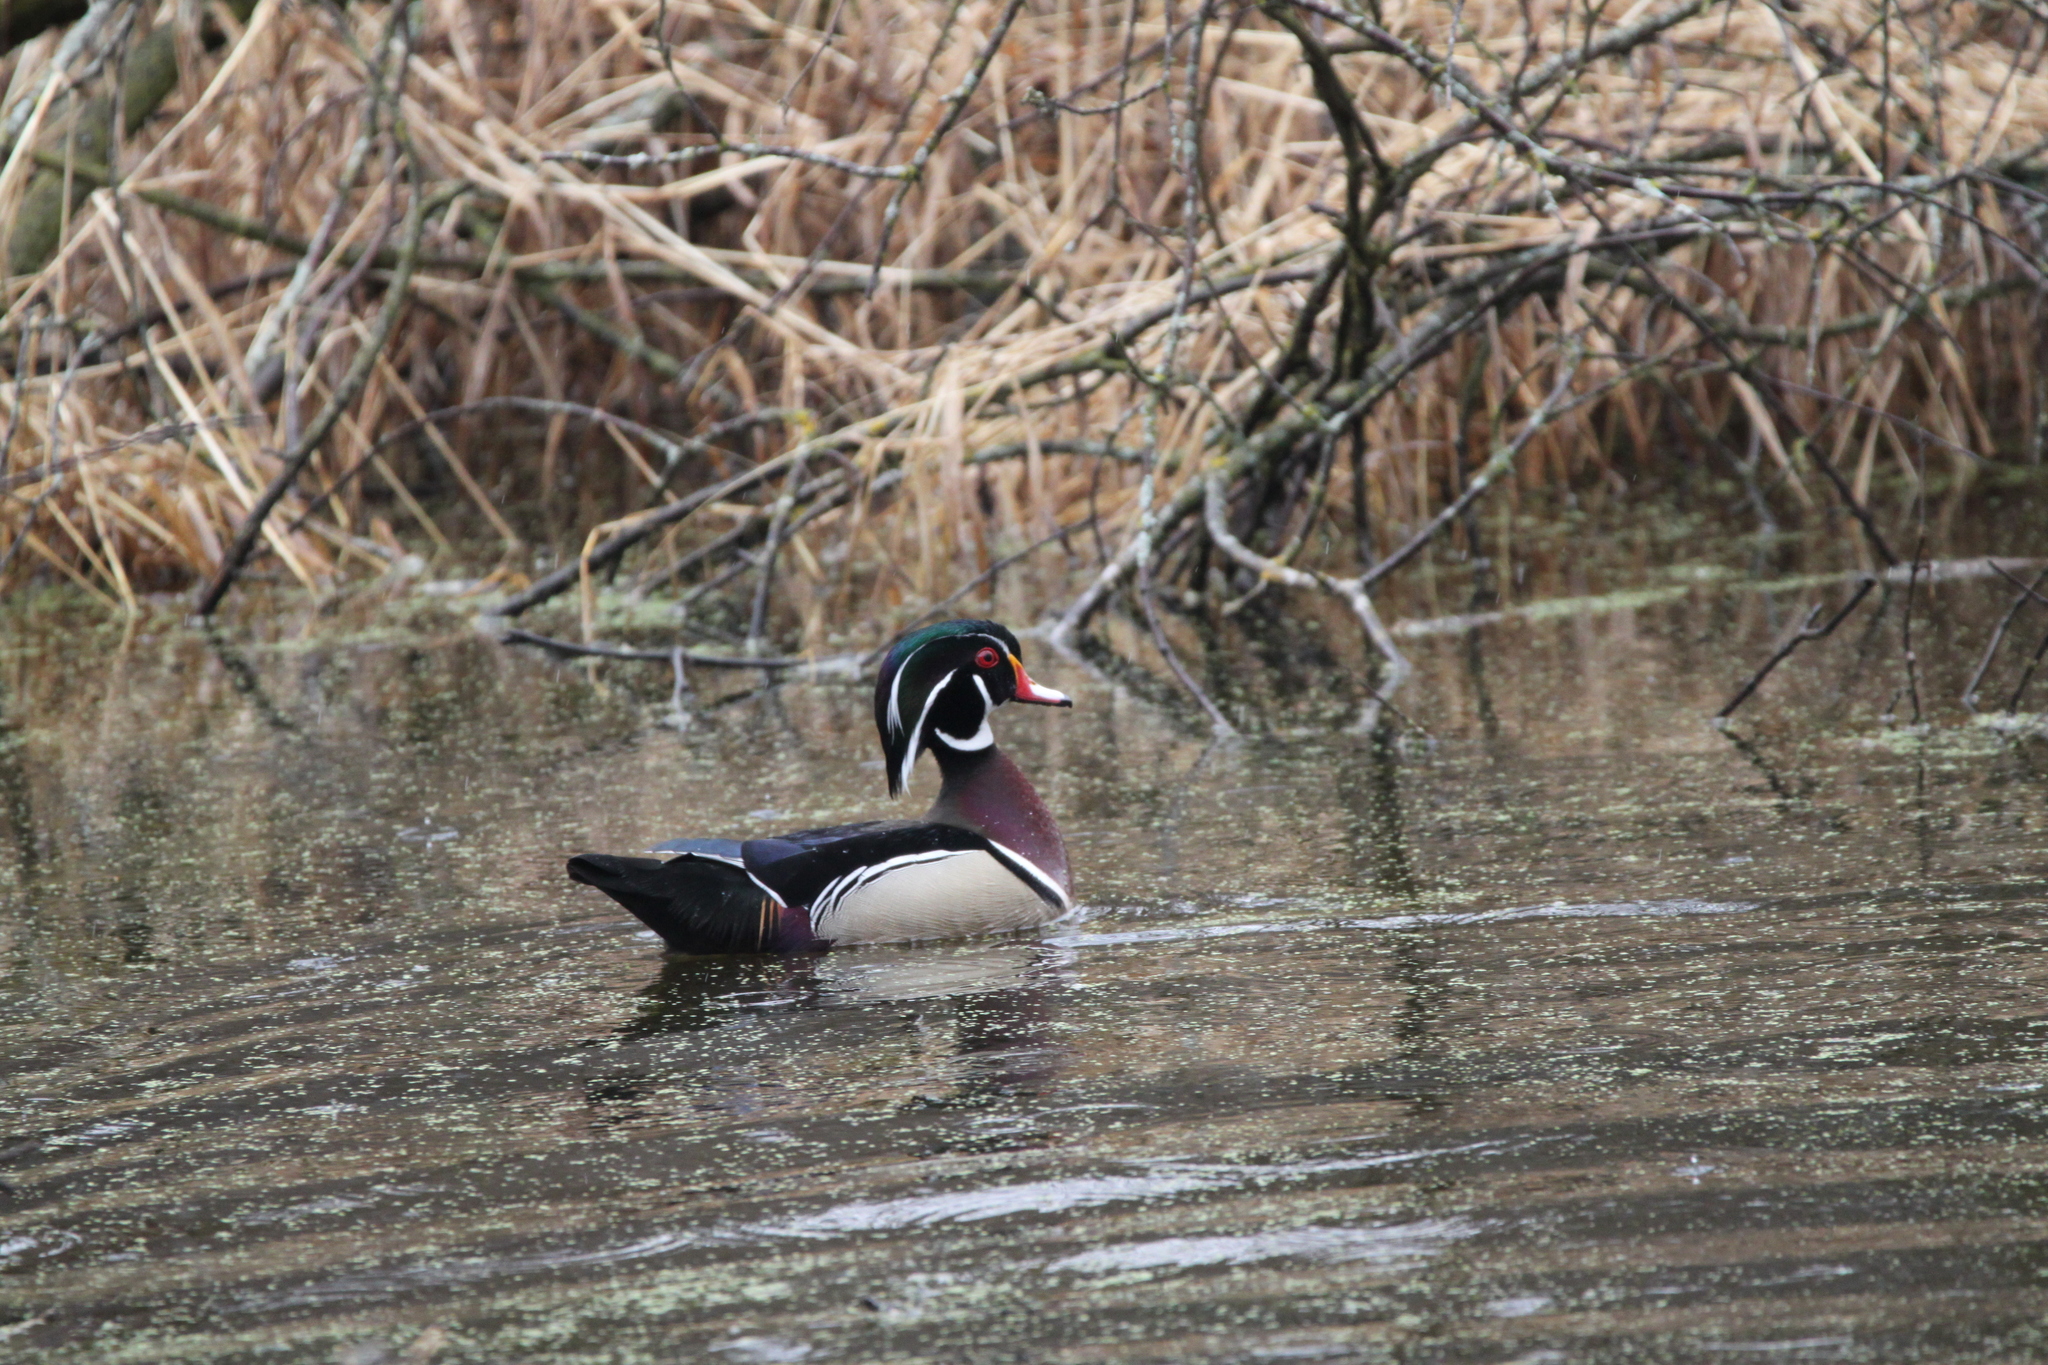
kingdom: Animalia
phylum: Chordata
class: Aves
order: Anseriformes
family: Anatidae
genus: Aix
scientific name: Aix sponsa
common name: Wood duck
